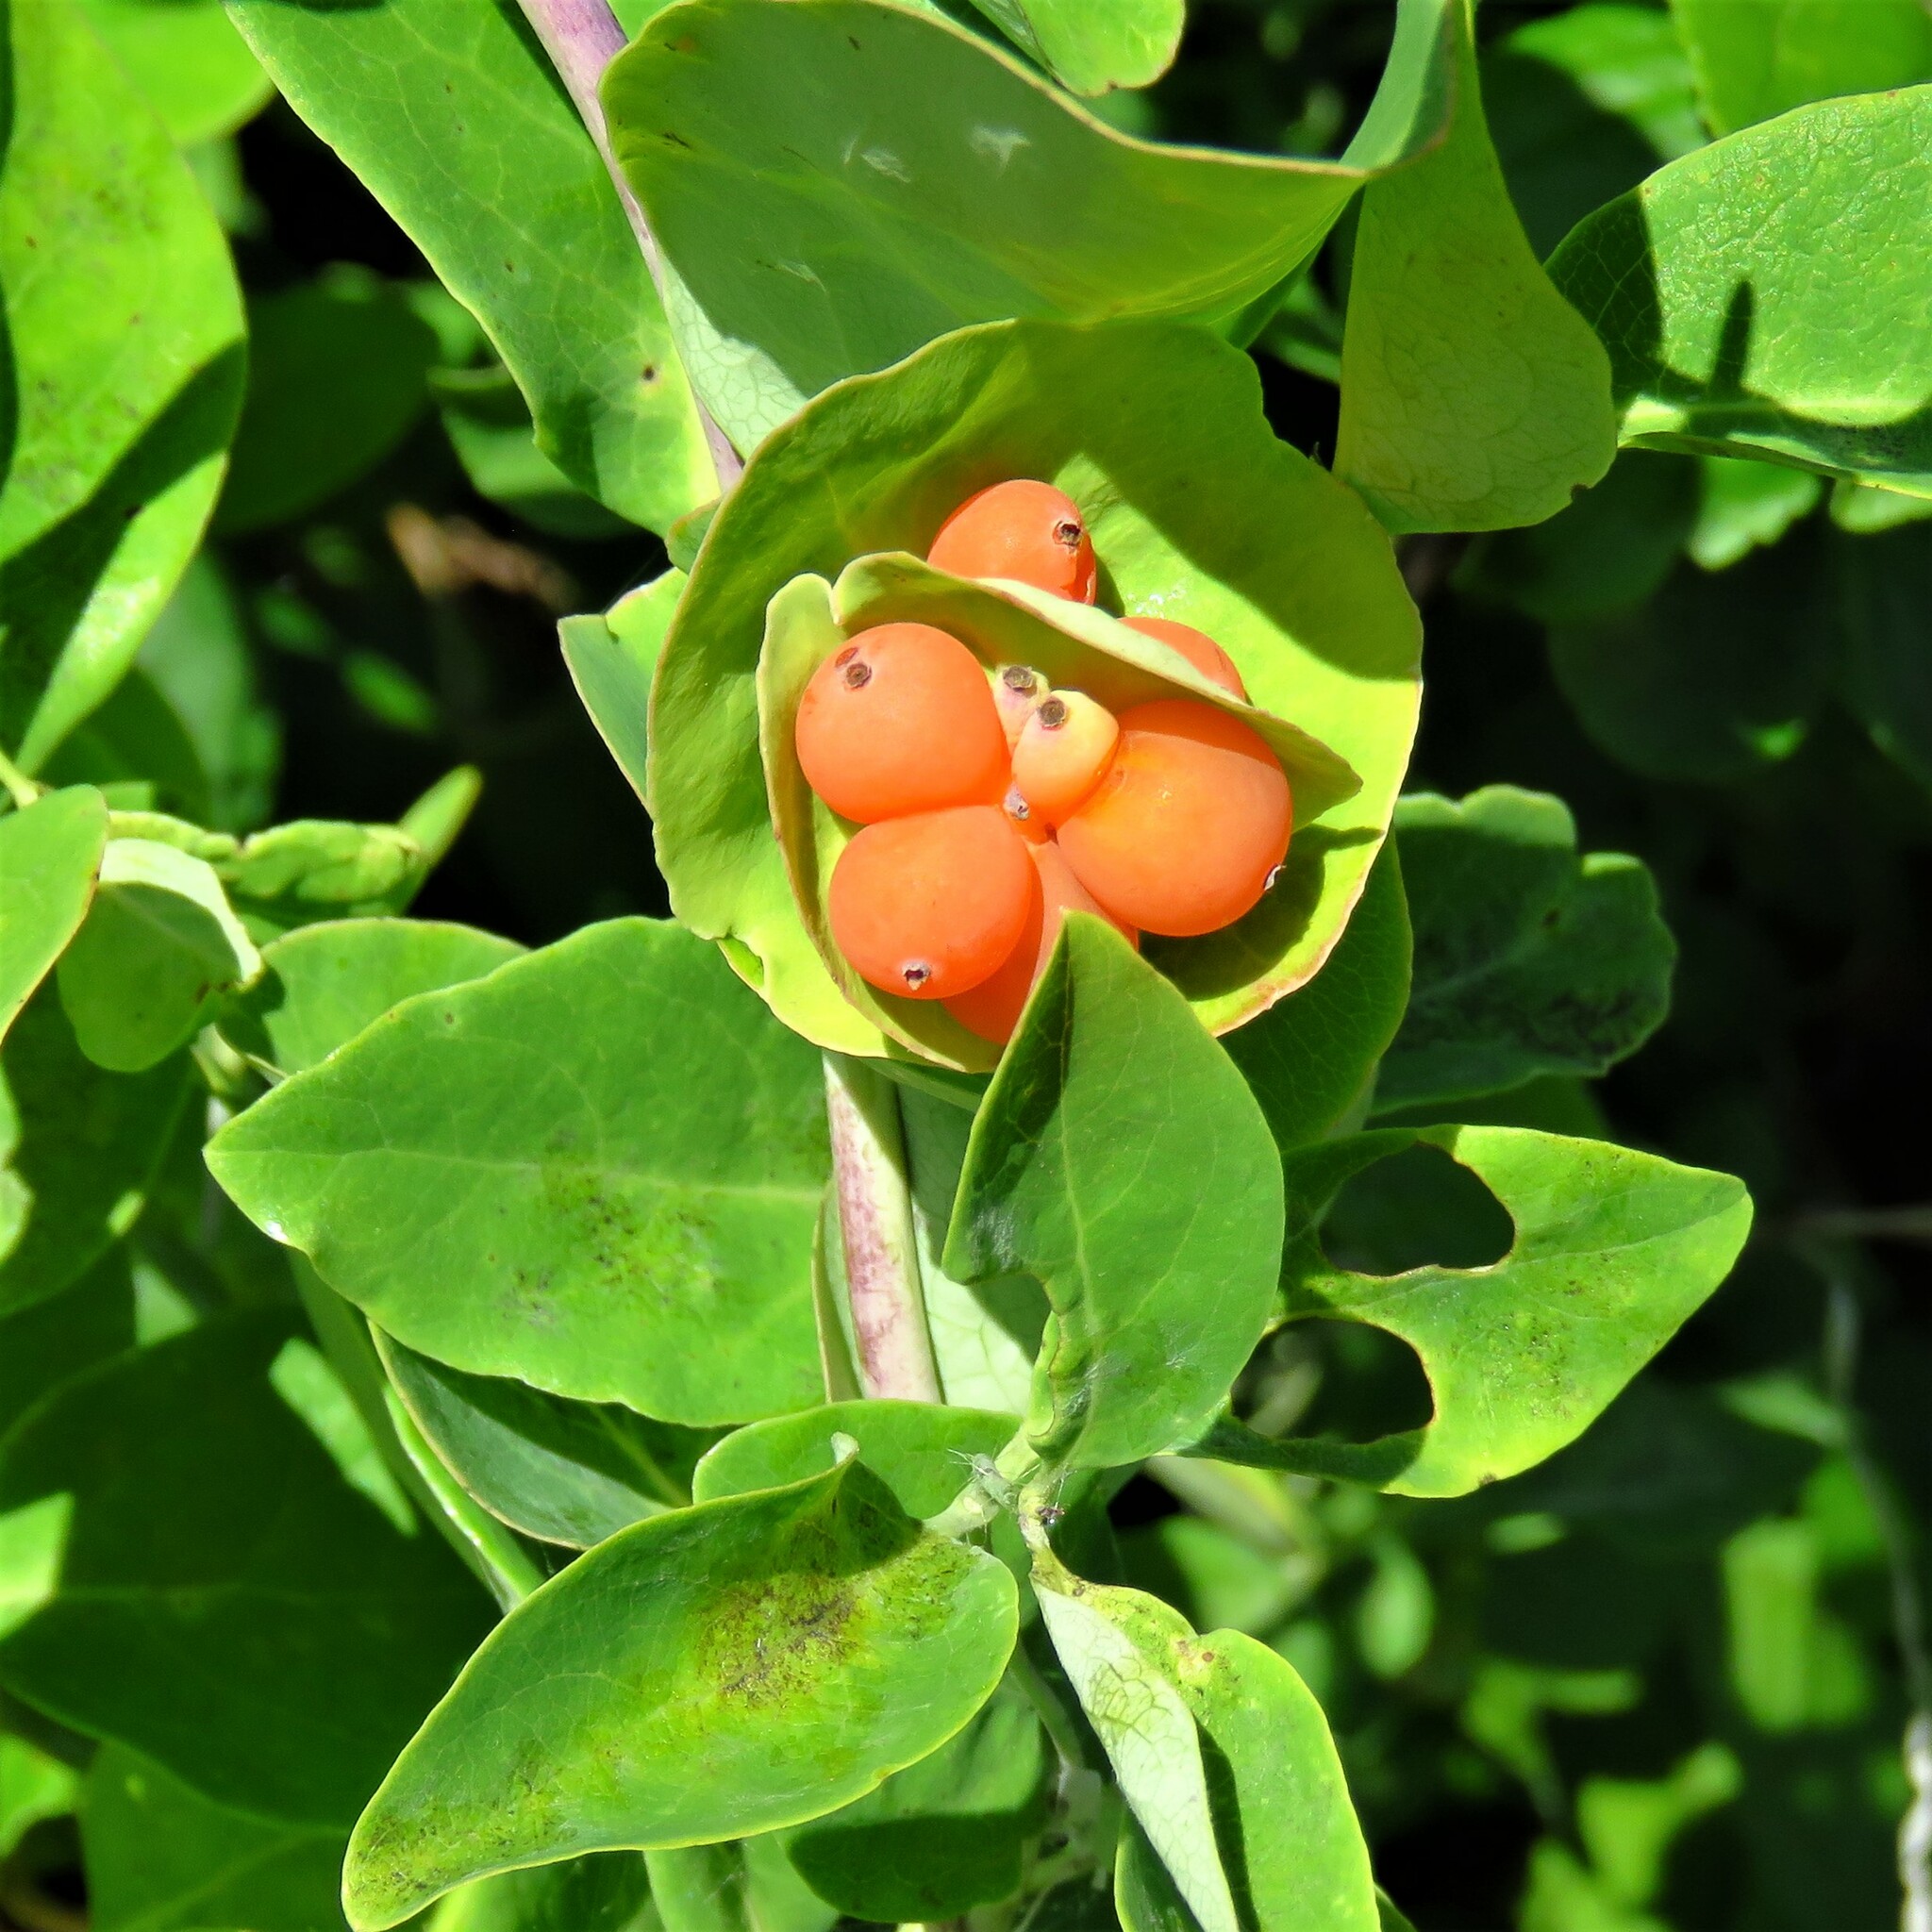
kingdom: Plantae
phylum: Tracheophyta
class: Magnoliopsida
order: Dipsacales
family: Caprifoliaceae
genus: Lonicera
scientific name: Lonicera caprifolium
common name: Perfoliate honeysuckle
